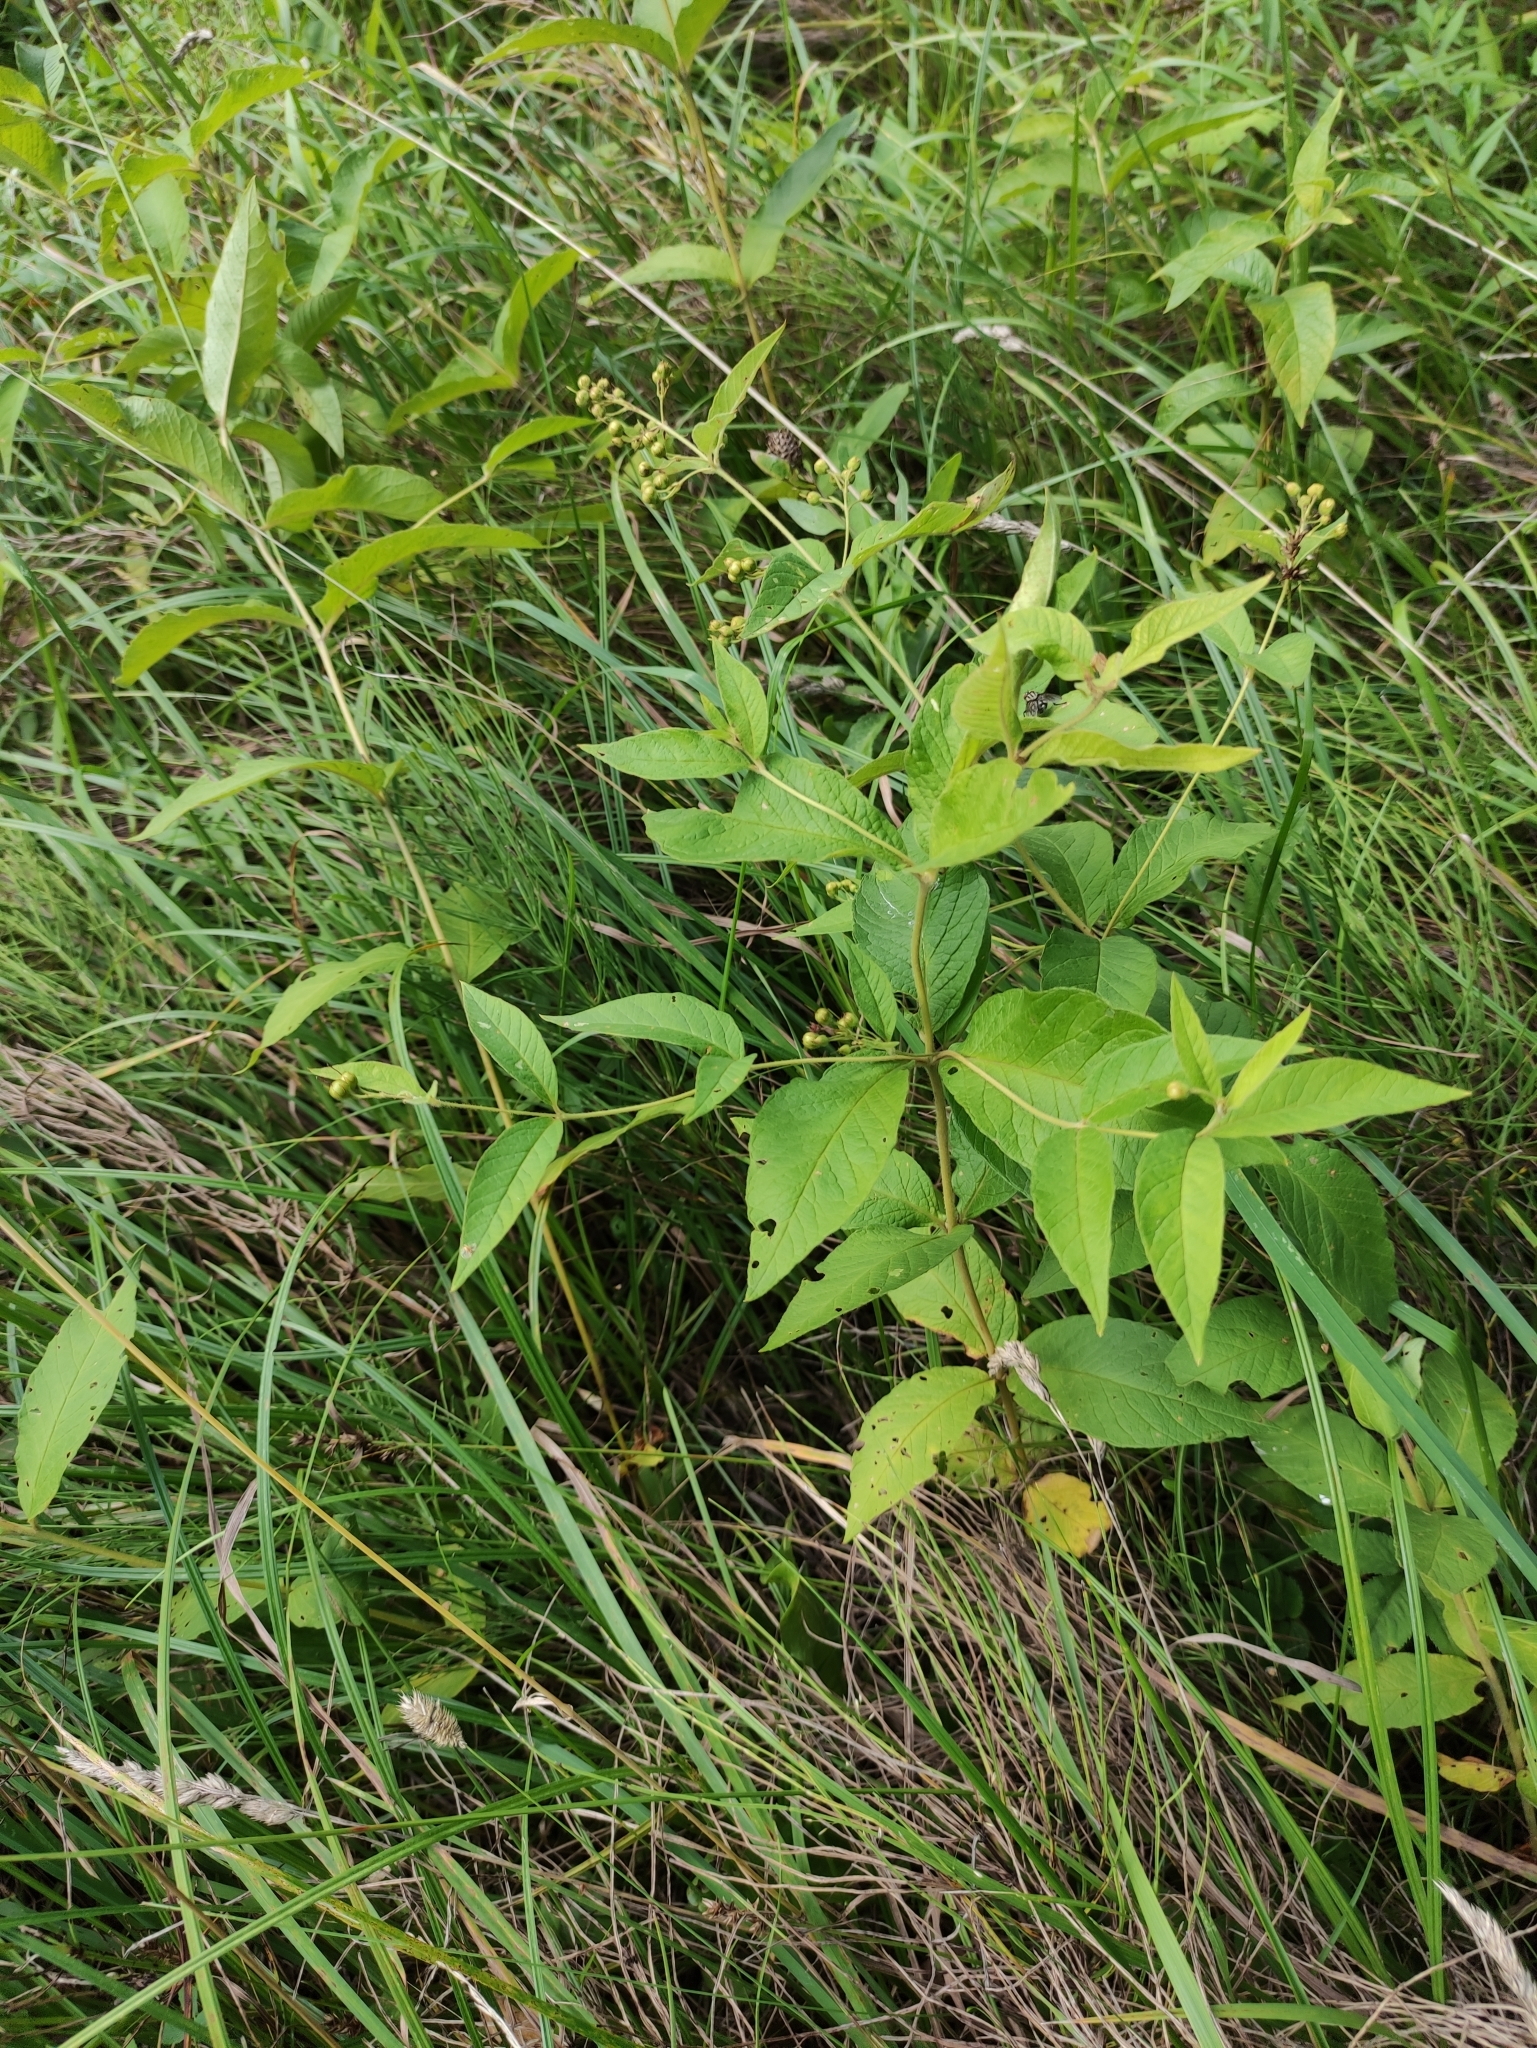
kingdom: Plantae
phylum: Tracheophyta
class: Magnoliopsida
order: Ericales
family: Primulaceae
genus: Lysimachia
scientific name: Lysimachia vulgaris
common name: Yellow loosestrife
